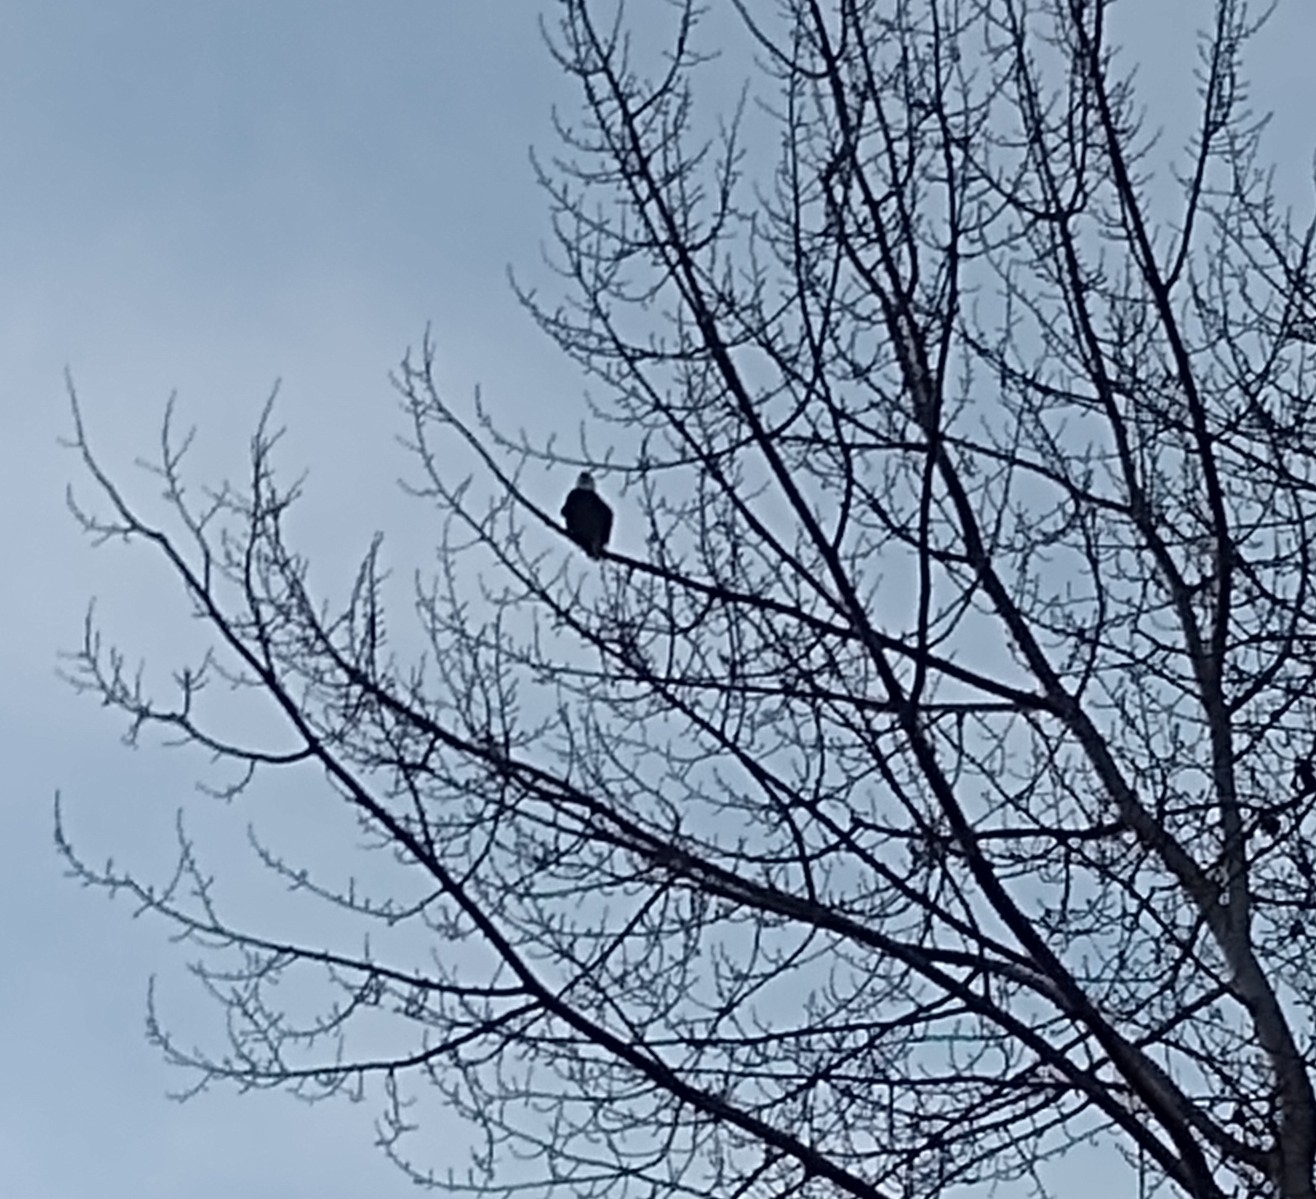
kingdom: Animalia
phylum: Chordata
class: Aves
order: Accipitriformes
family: Accipitridae
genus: Haliaeetus
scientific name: Haliaeetus leucocephalus
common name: Bald eagle
